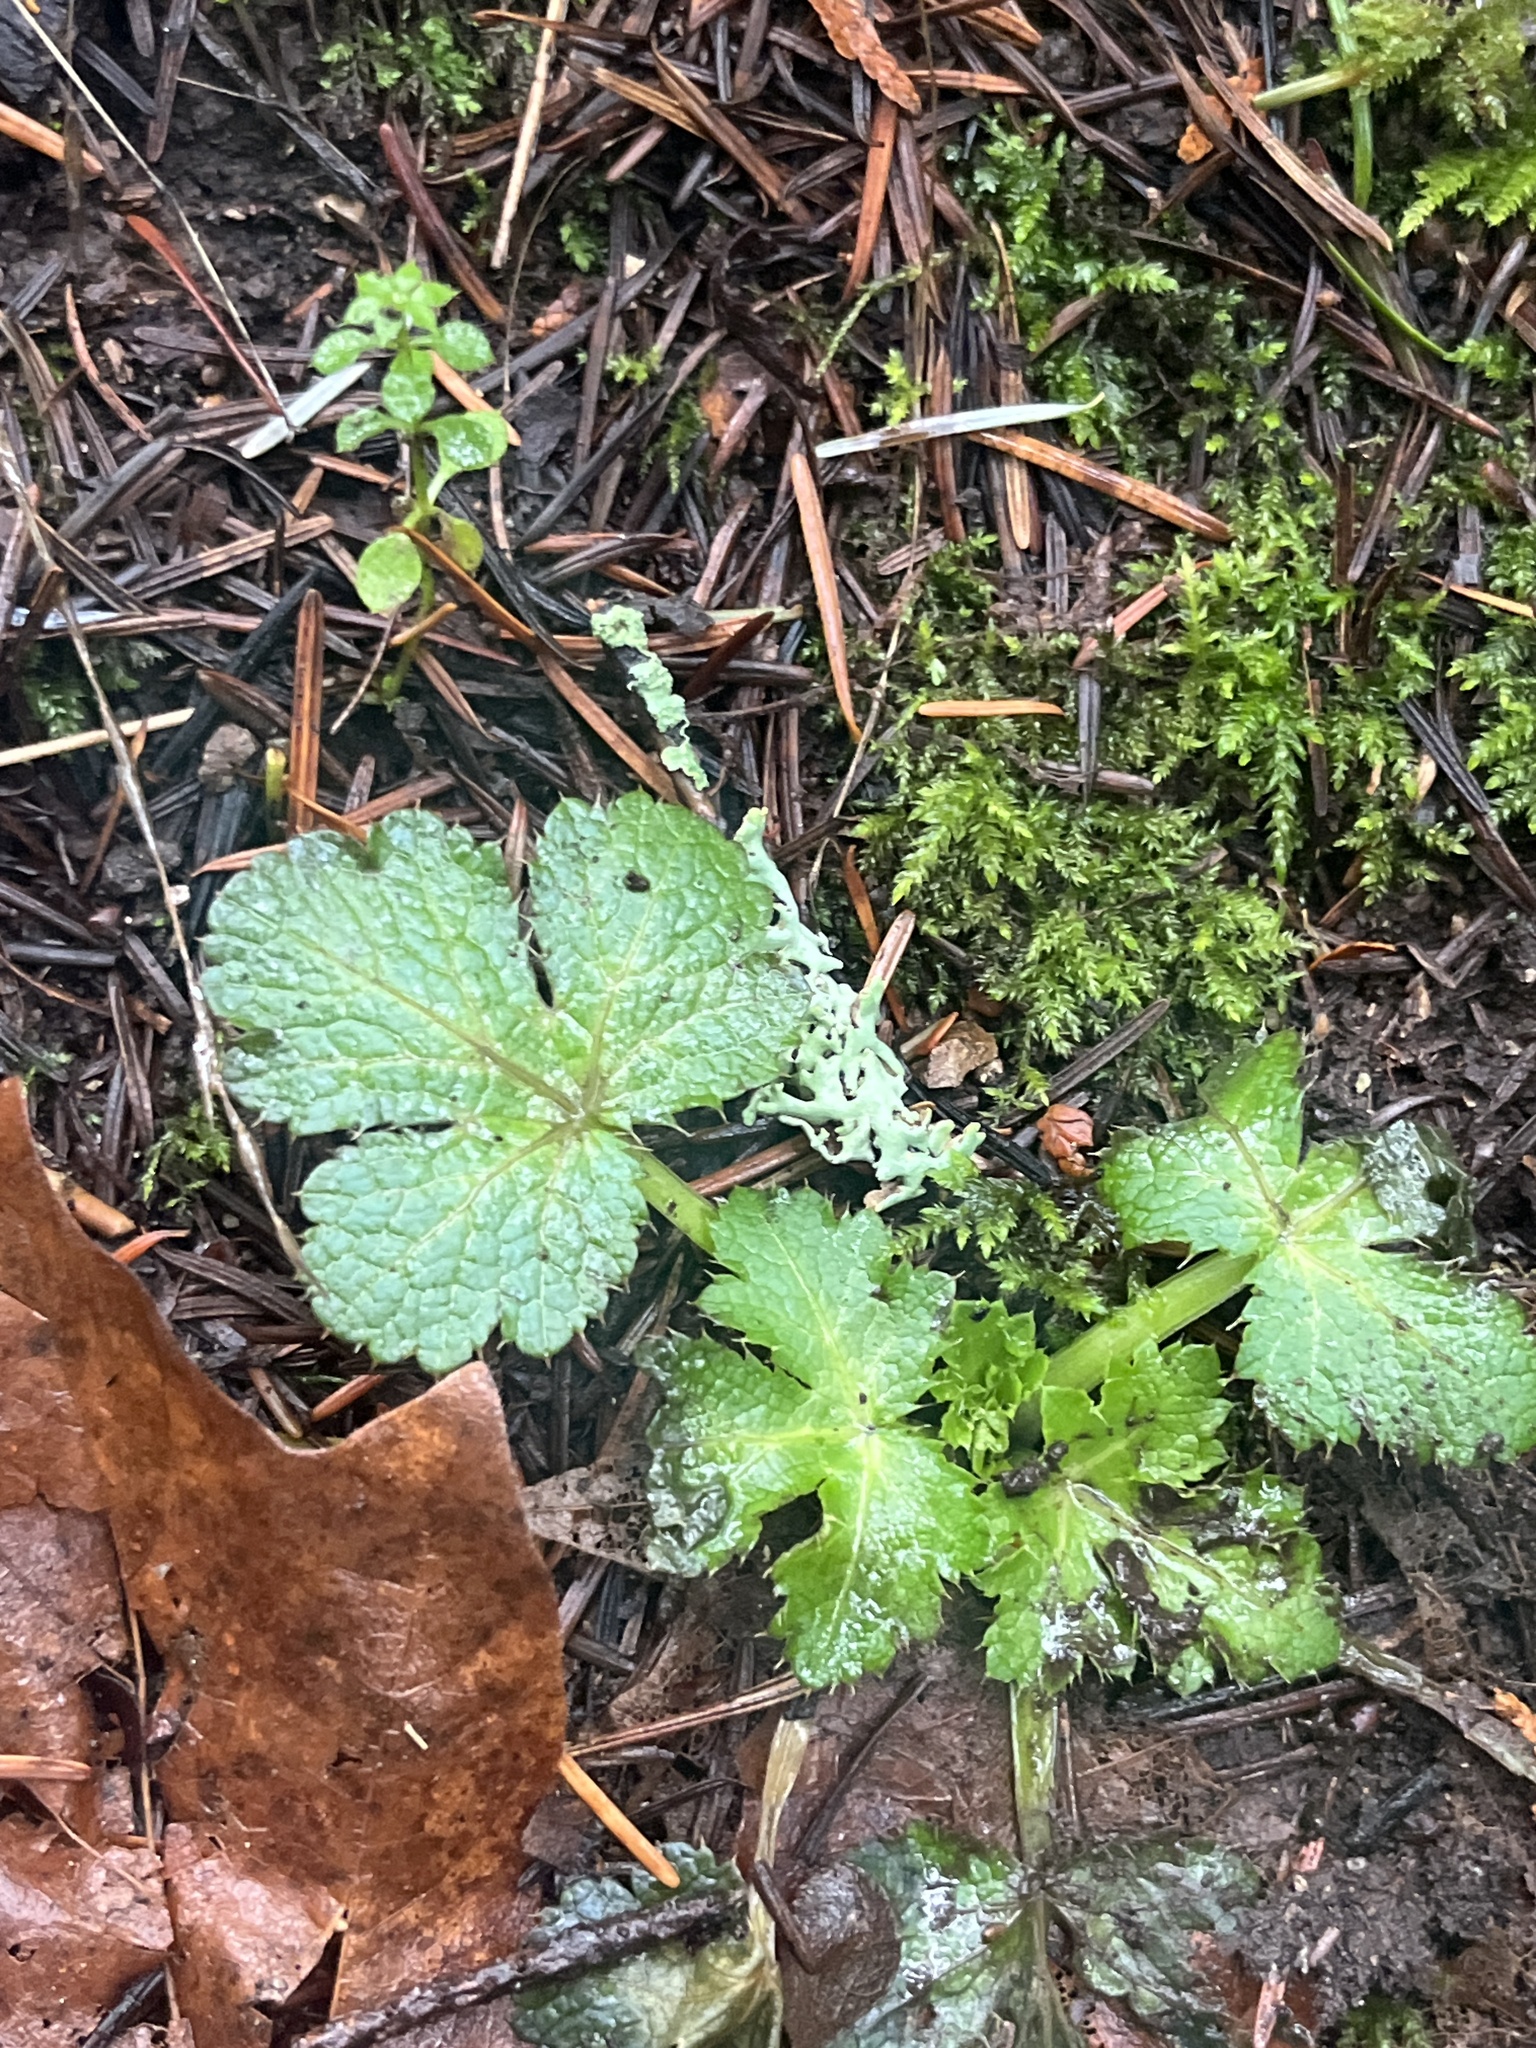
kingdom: Plantae
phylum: Tracheophyta
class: Magnoliopsida
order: Apiales
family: Apiaceae
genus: Sanicula
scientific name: Sanicula crassicaulis
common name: Western snakeroot
